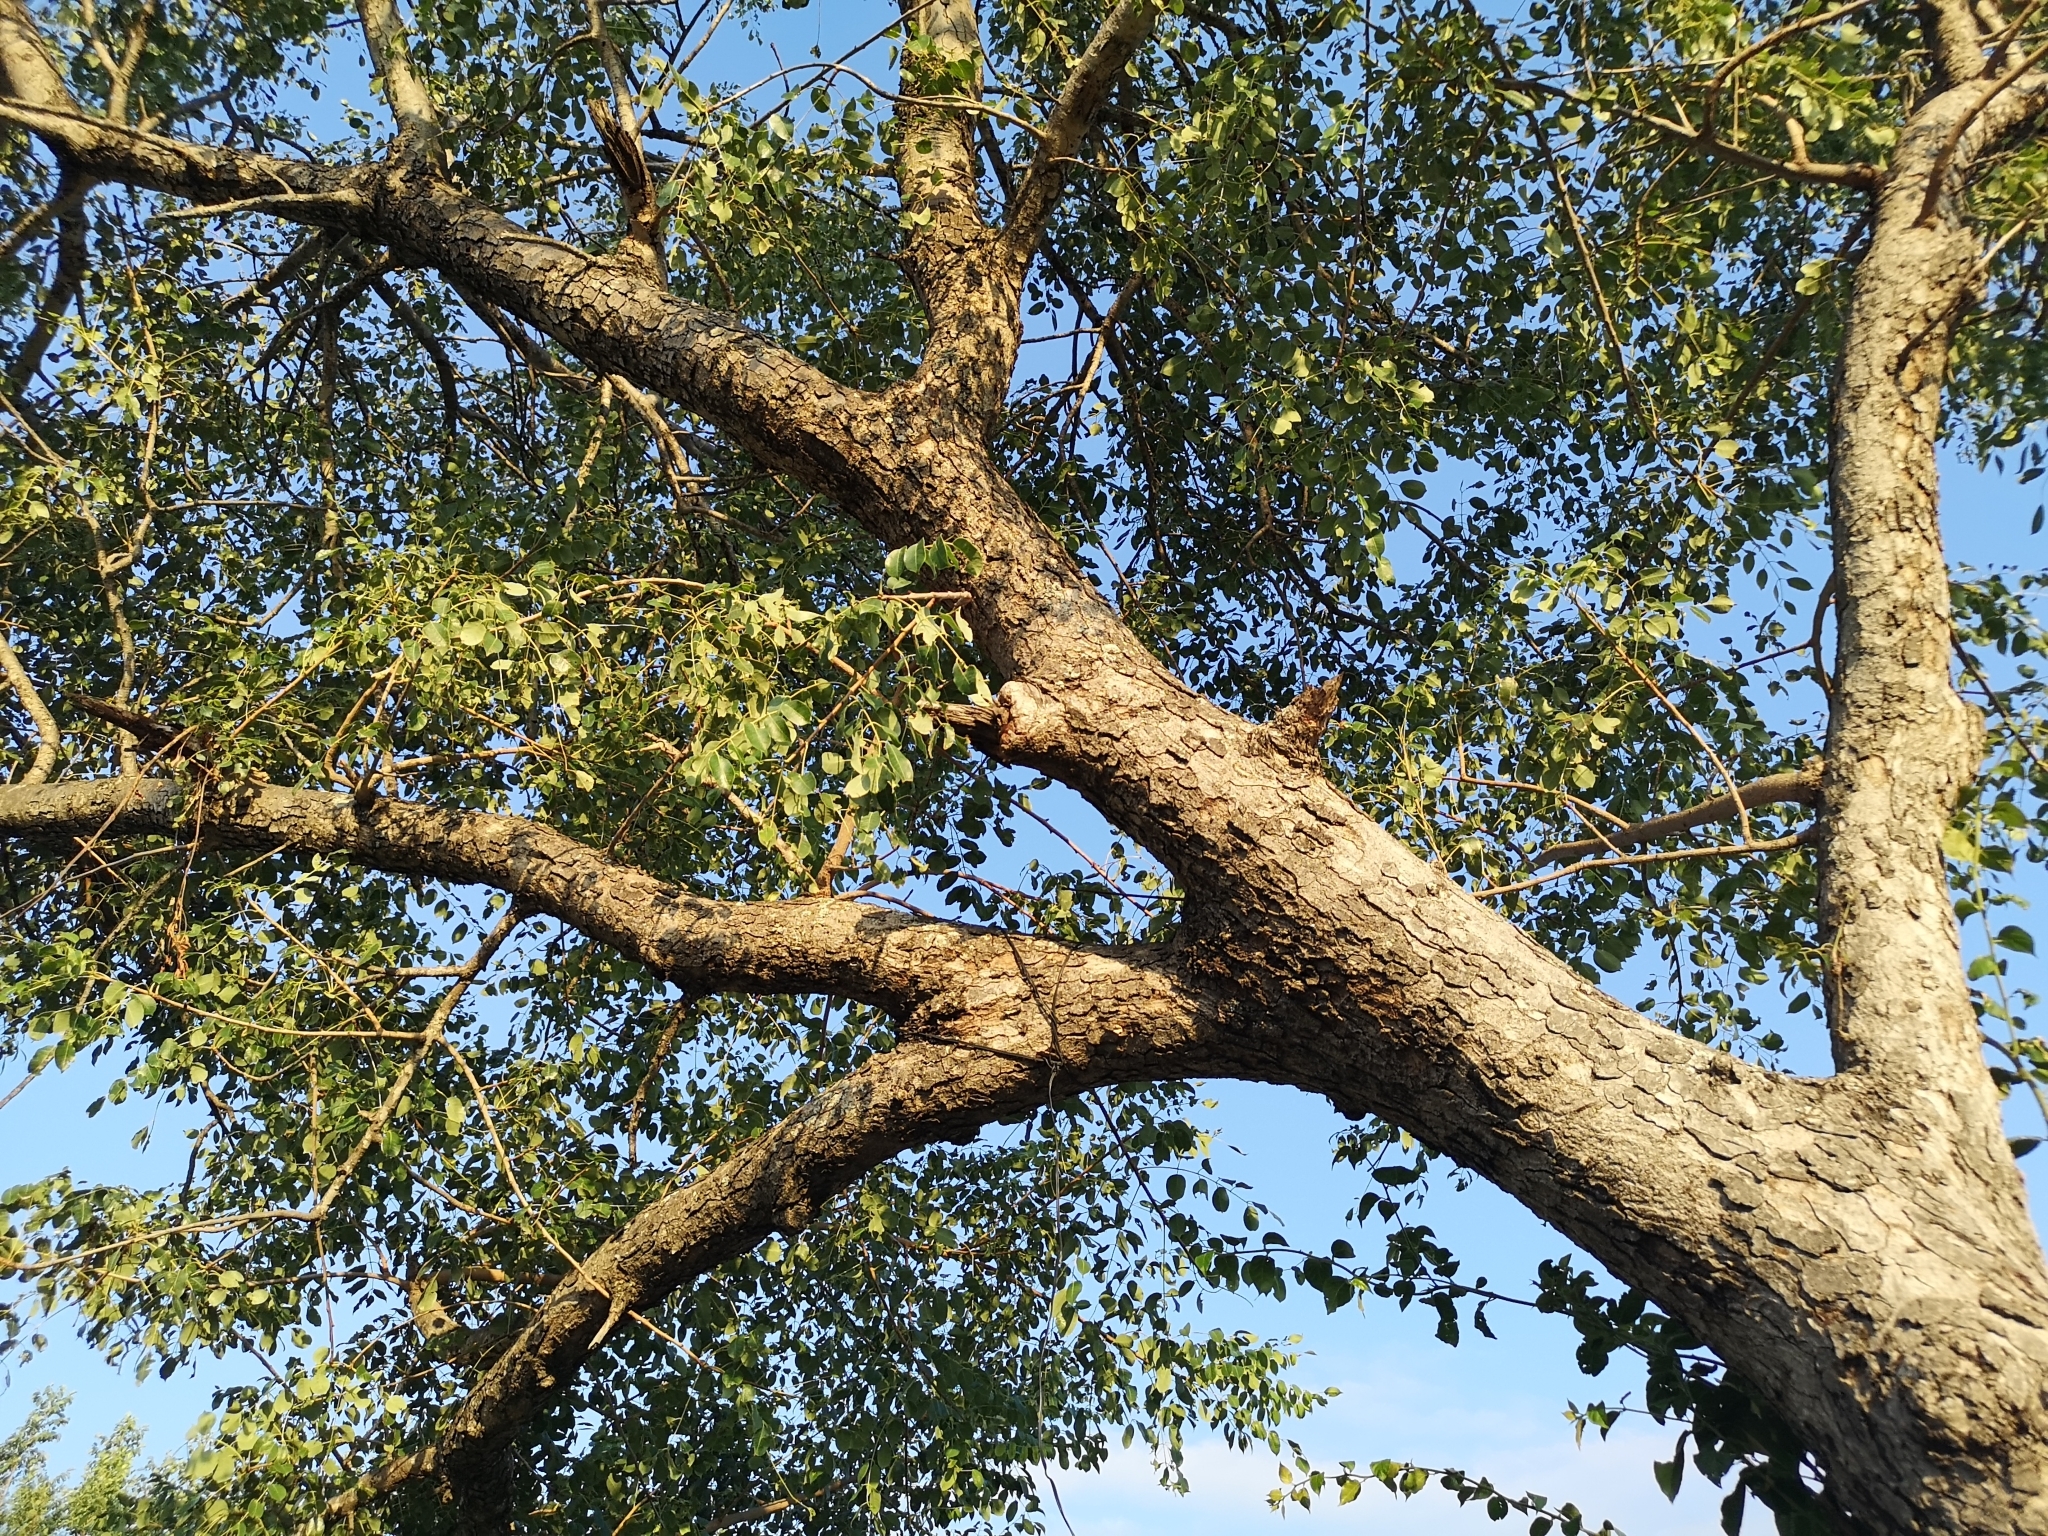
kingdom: Plantae
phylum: Tracheophyta
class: Magnoliopsida
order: Sapindales
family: Anacardiaceae
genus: Sclerocarya
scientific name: Sclerocarya birrea
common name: Marula
